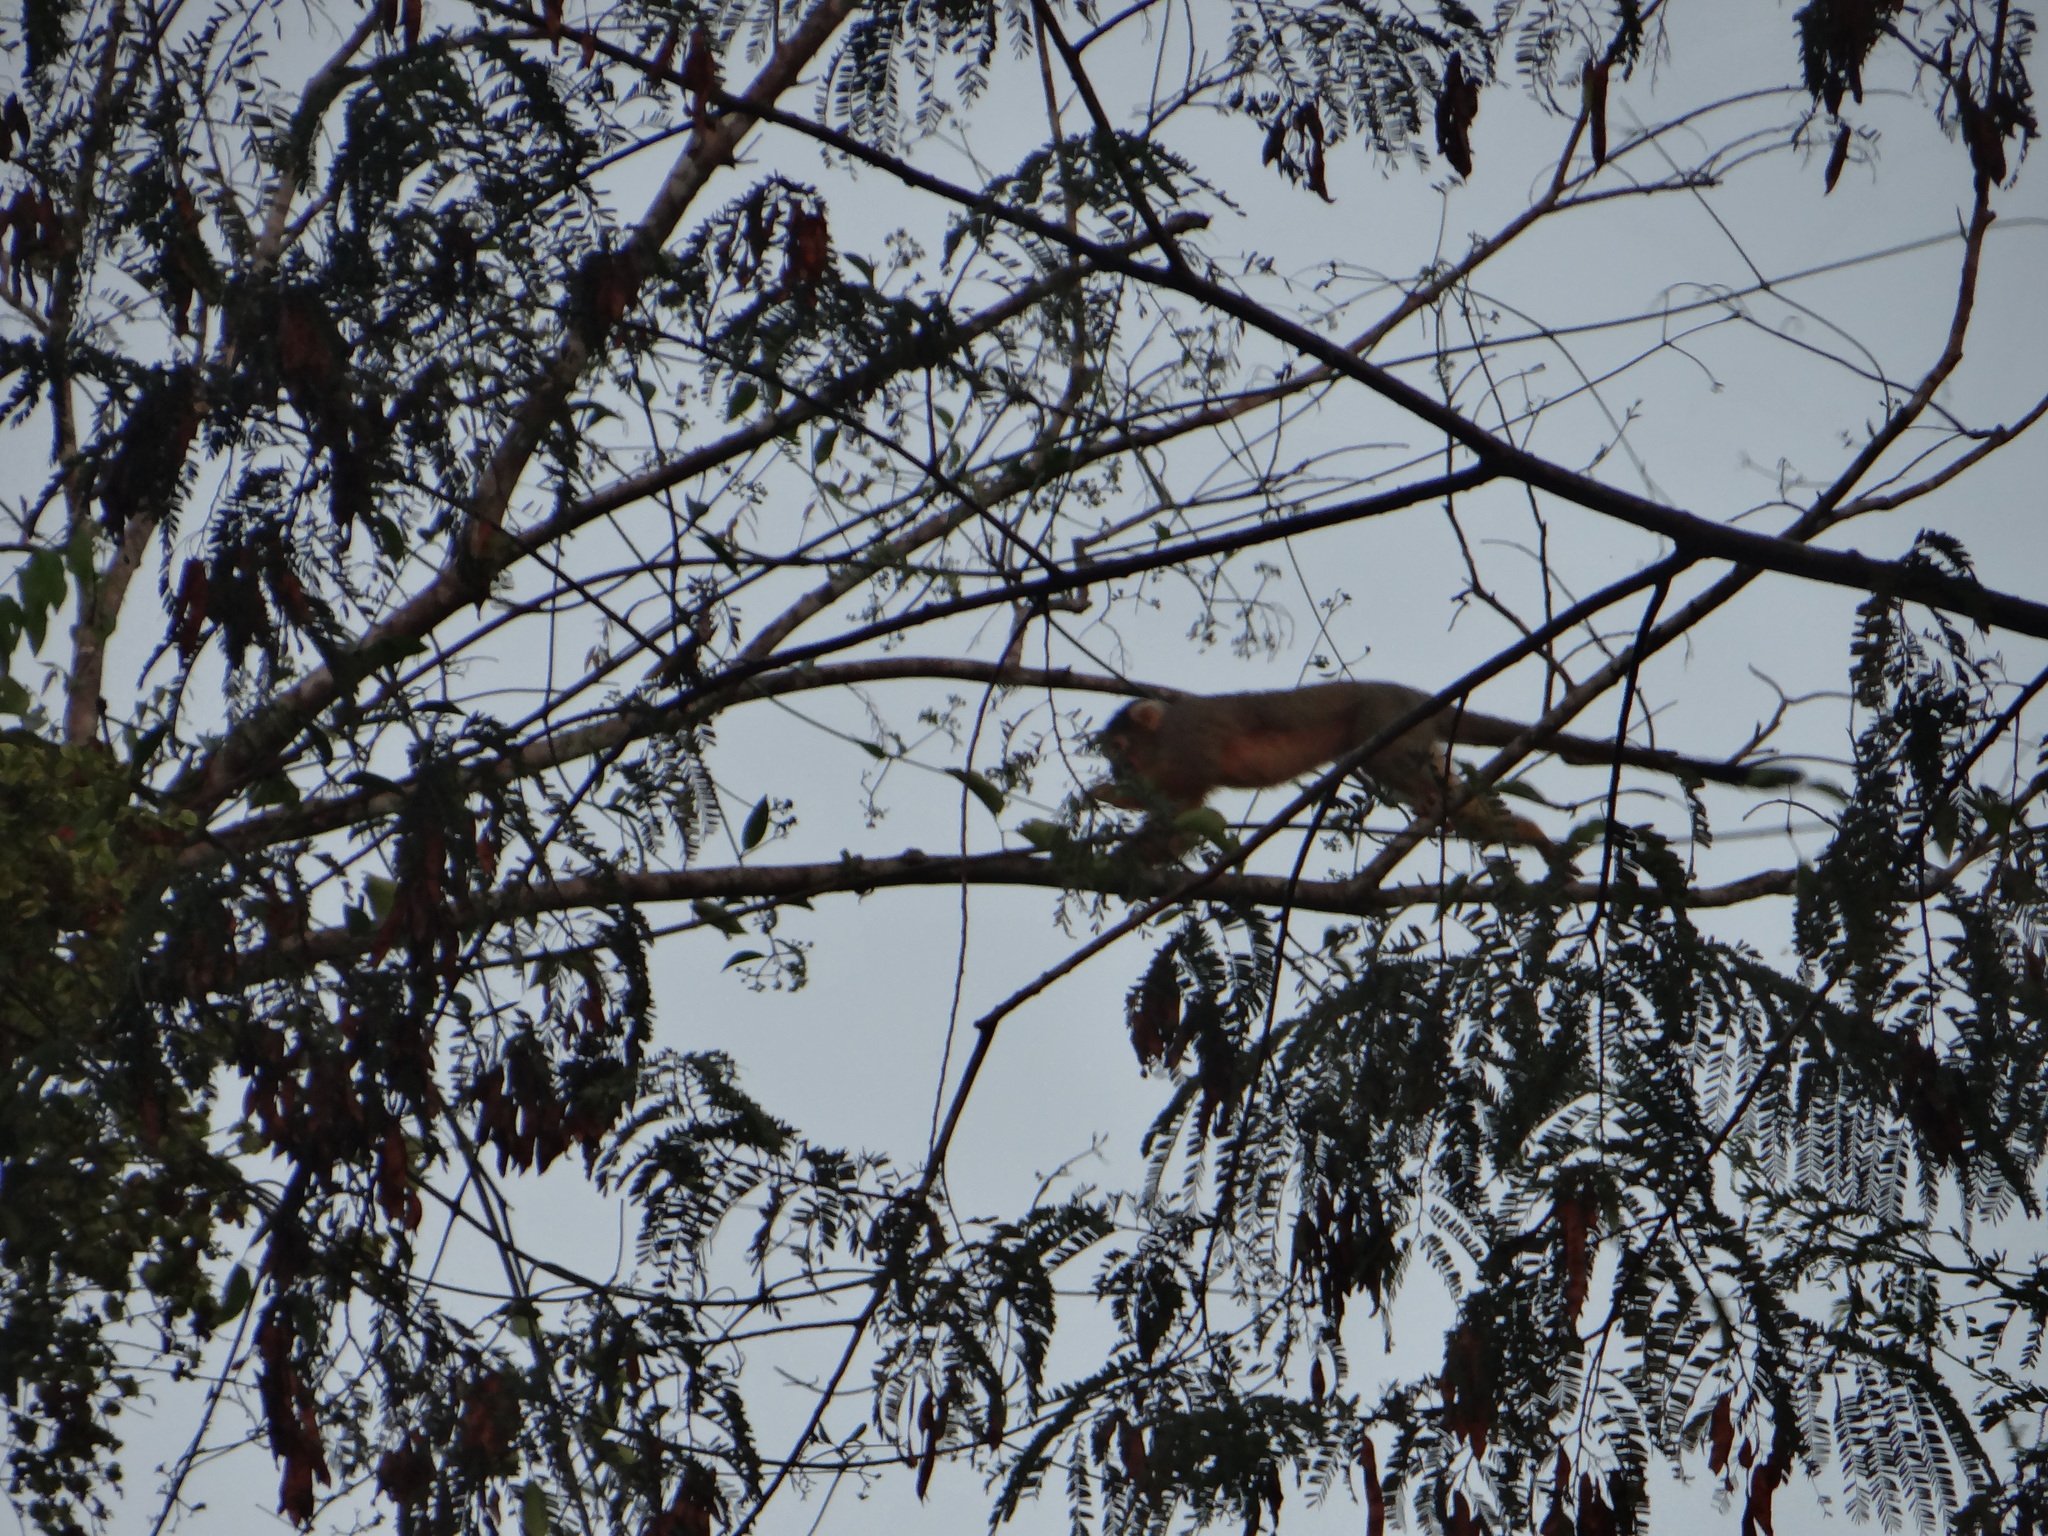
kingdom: Animalia
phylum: Chordata
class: Mammalia
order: Primates
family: Cebidae
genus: Saimiri
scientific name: Saimiri boliviensis
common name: Black-capped squirrel monkey
